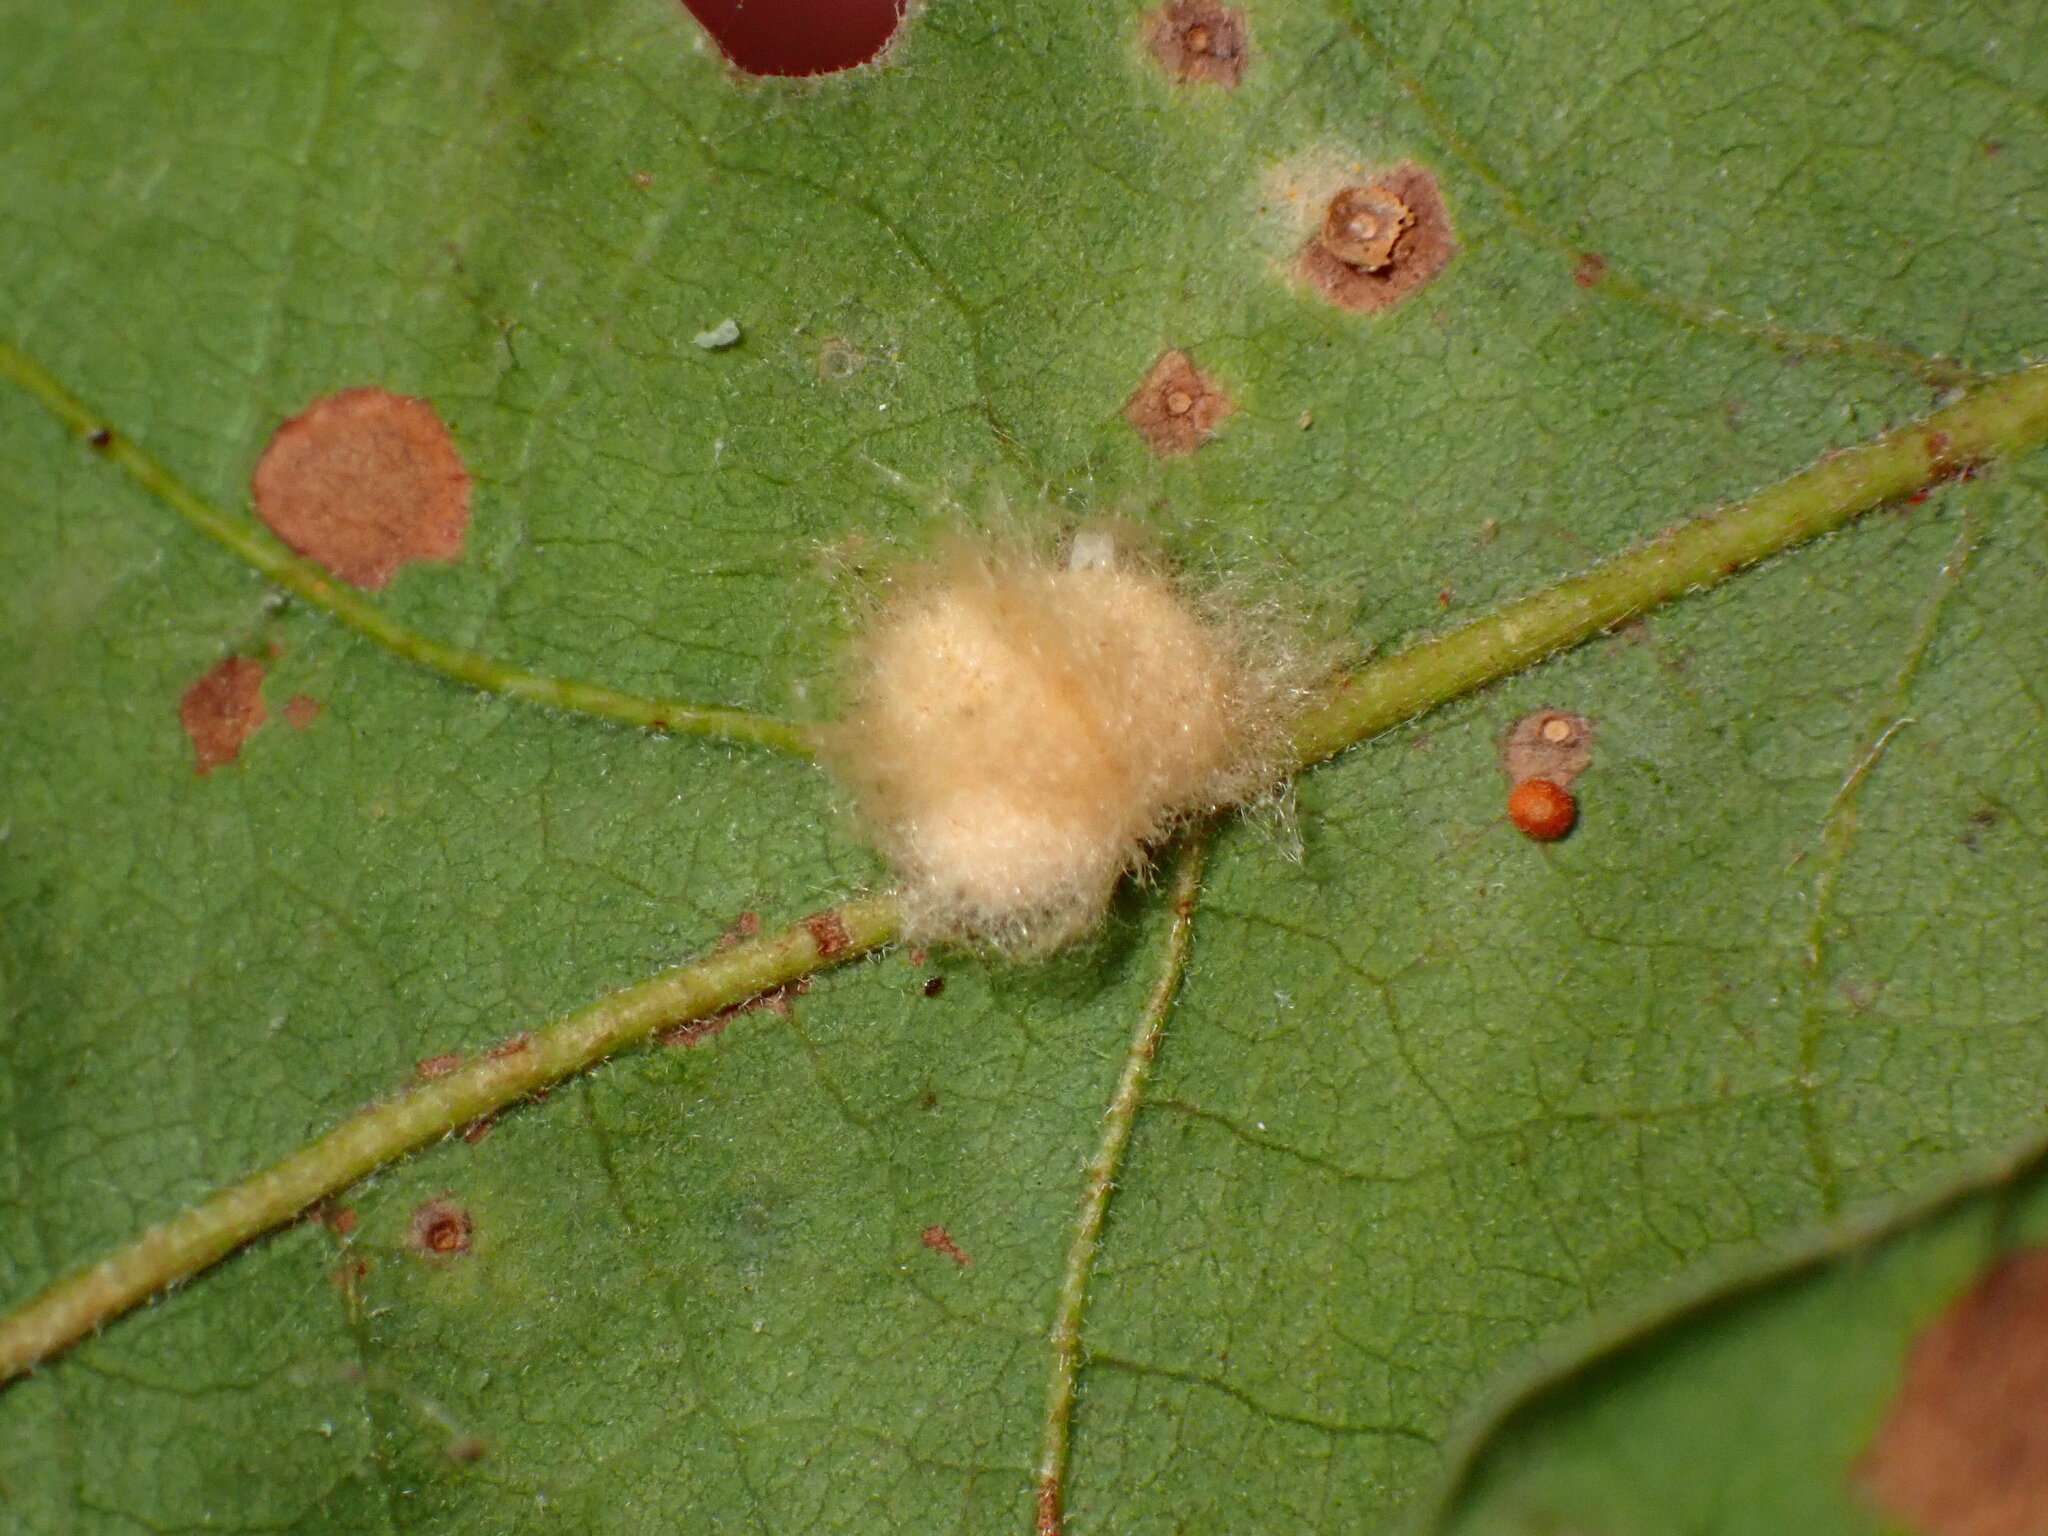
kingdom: Animalia
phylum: Arthropoda
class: Insecta
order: Hymenoptera
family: Cynipidae
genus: Andricus
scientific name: Andricus Druon fullawayi
